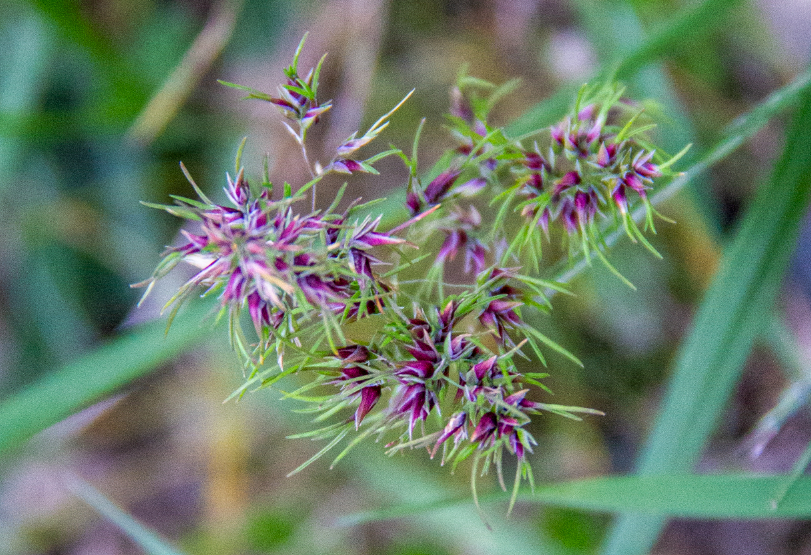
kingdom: Plantae
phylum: Tracheophyta
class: Liliopsida
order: Poales
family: Poaceae
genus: Poa
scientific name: Poa bulbosa
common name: Bulbous bluegrass
